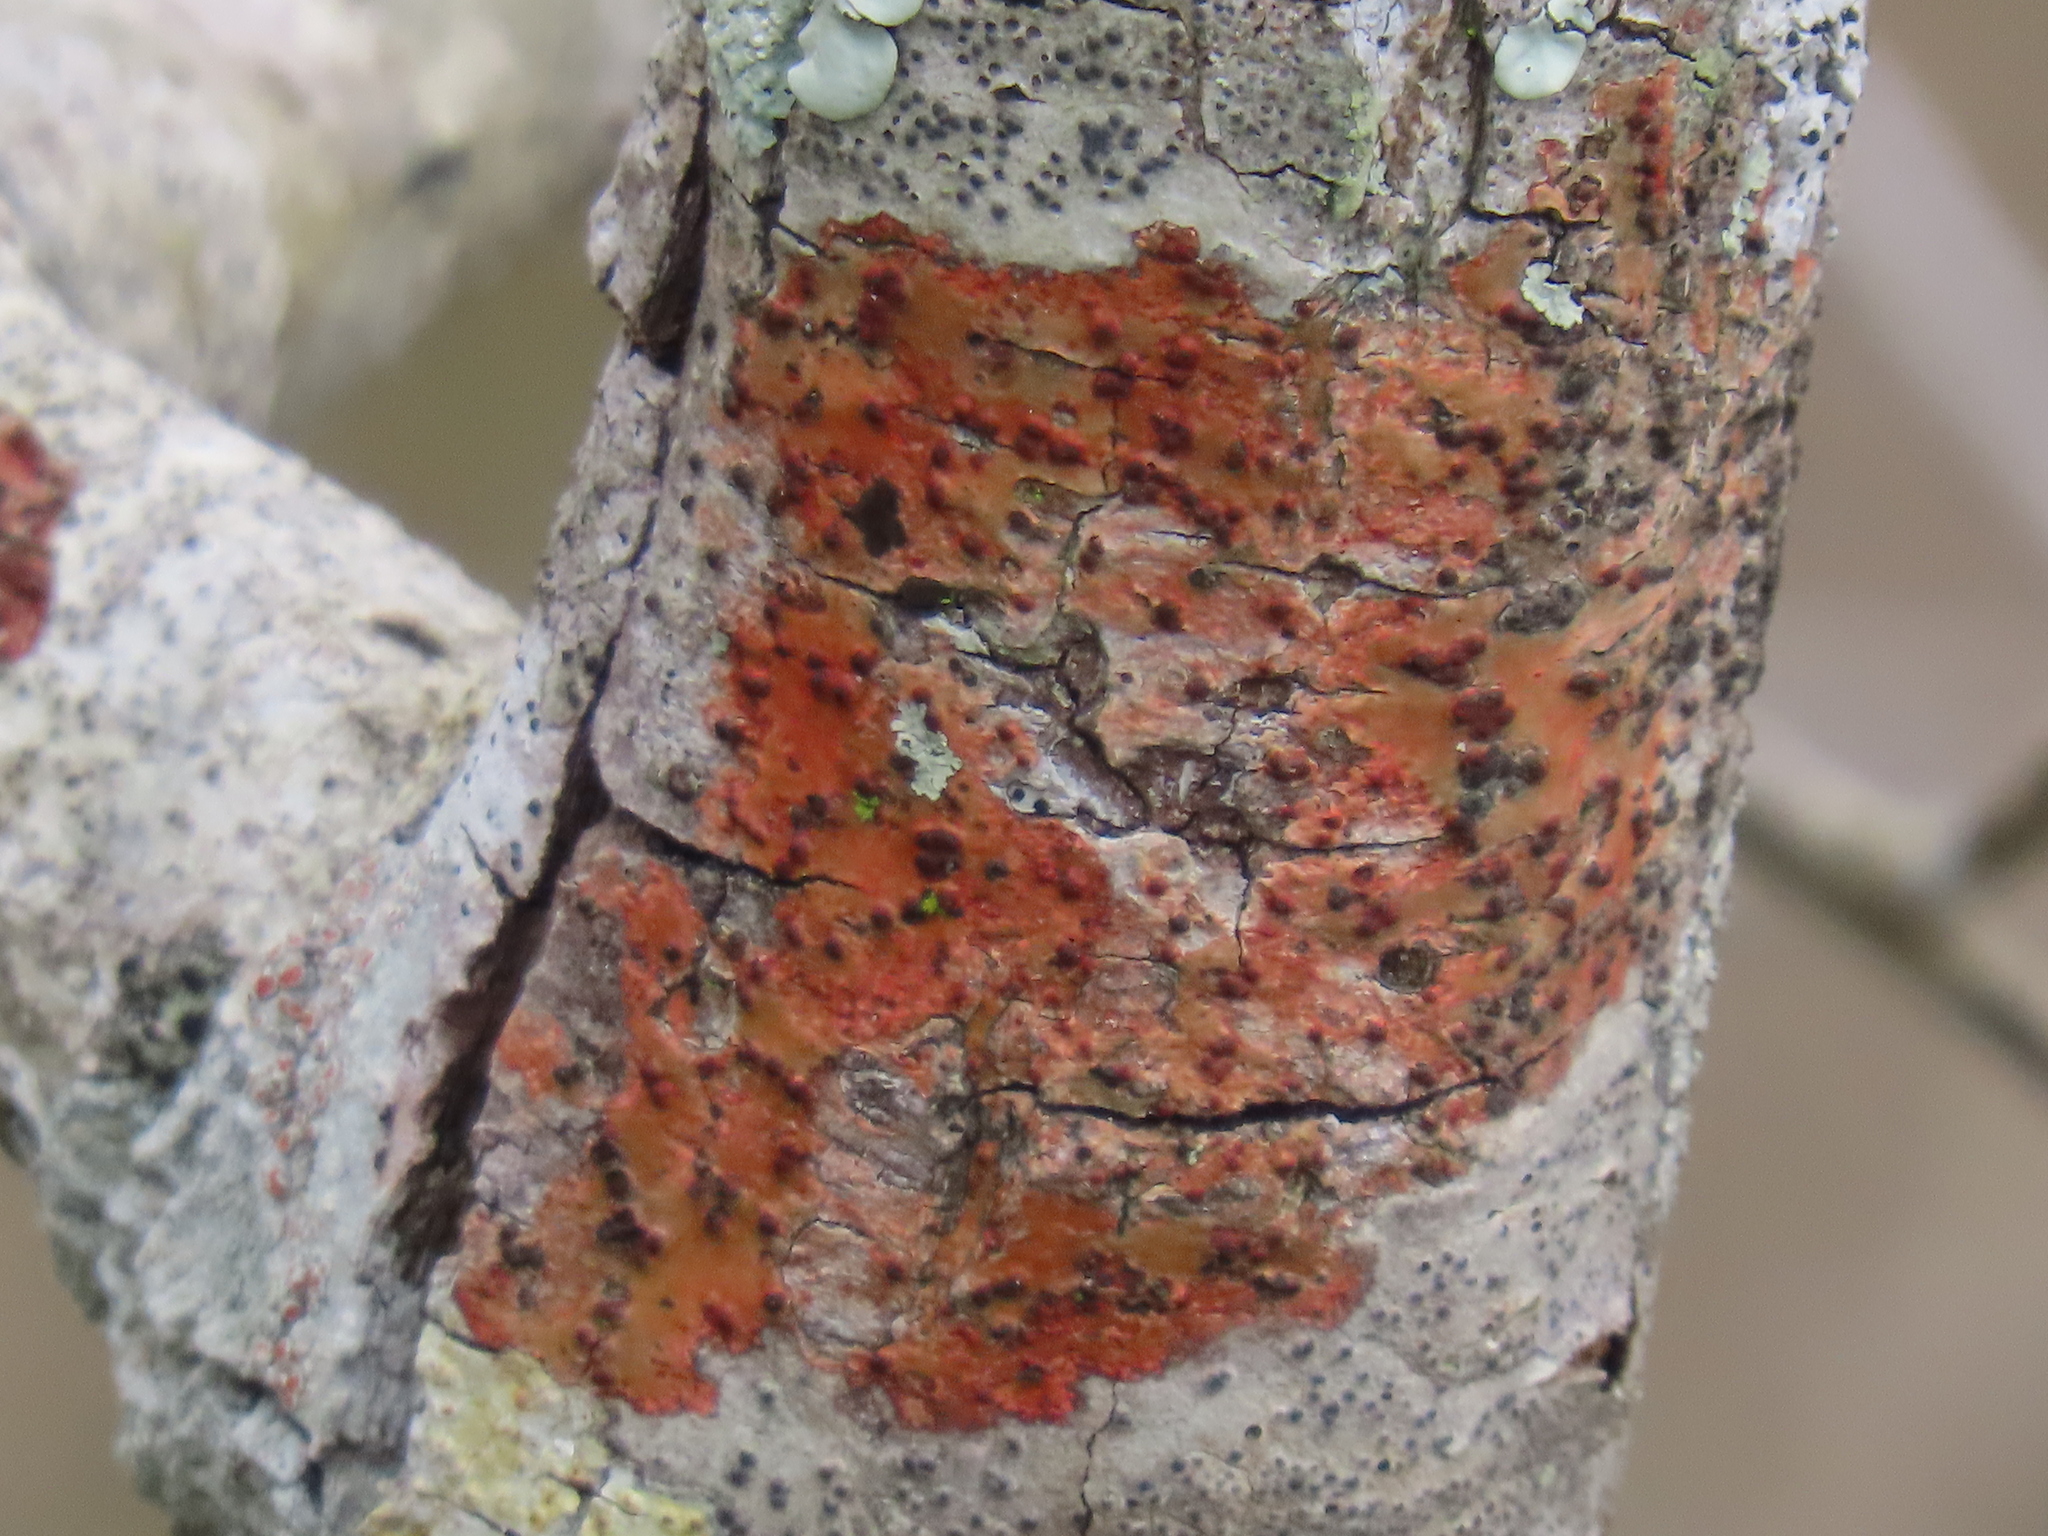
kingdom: Fungi
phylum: Ascomycota
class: Eurotiomycetes
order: Pyrenulales
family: Pyrenulaceae
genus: Pyrenula
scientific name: Pyrenula cruenta
